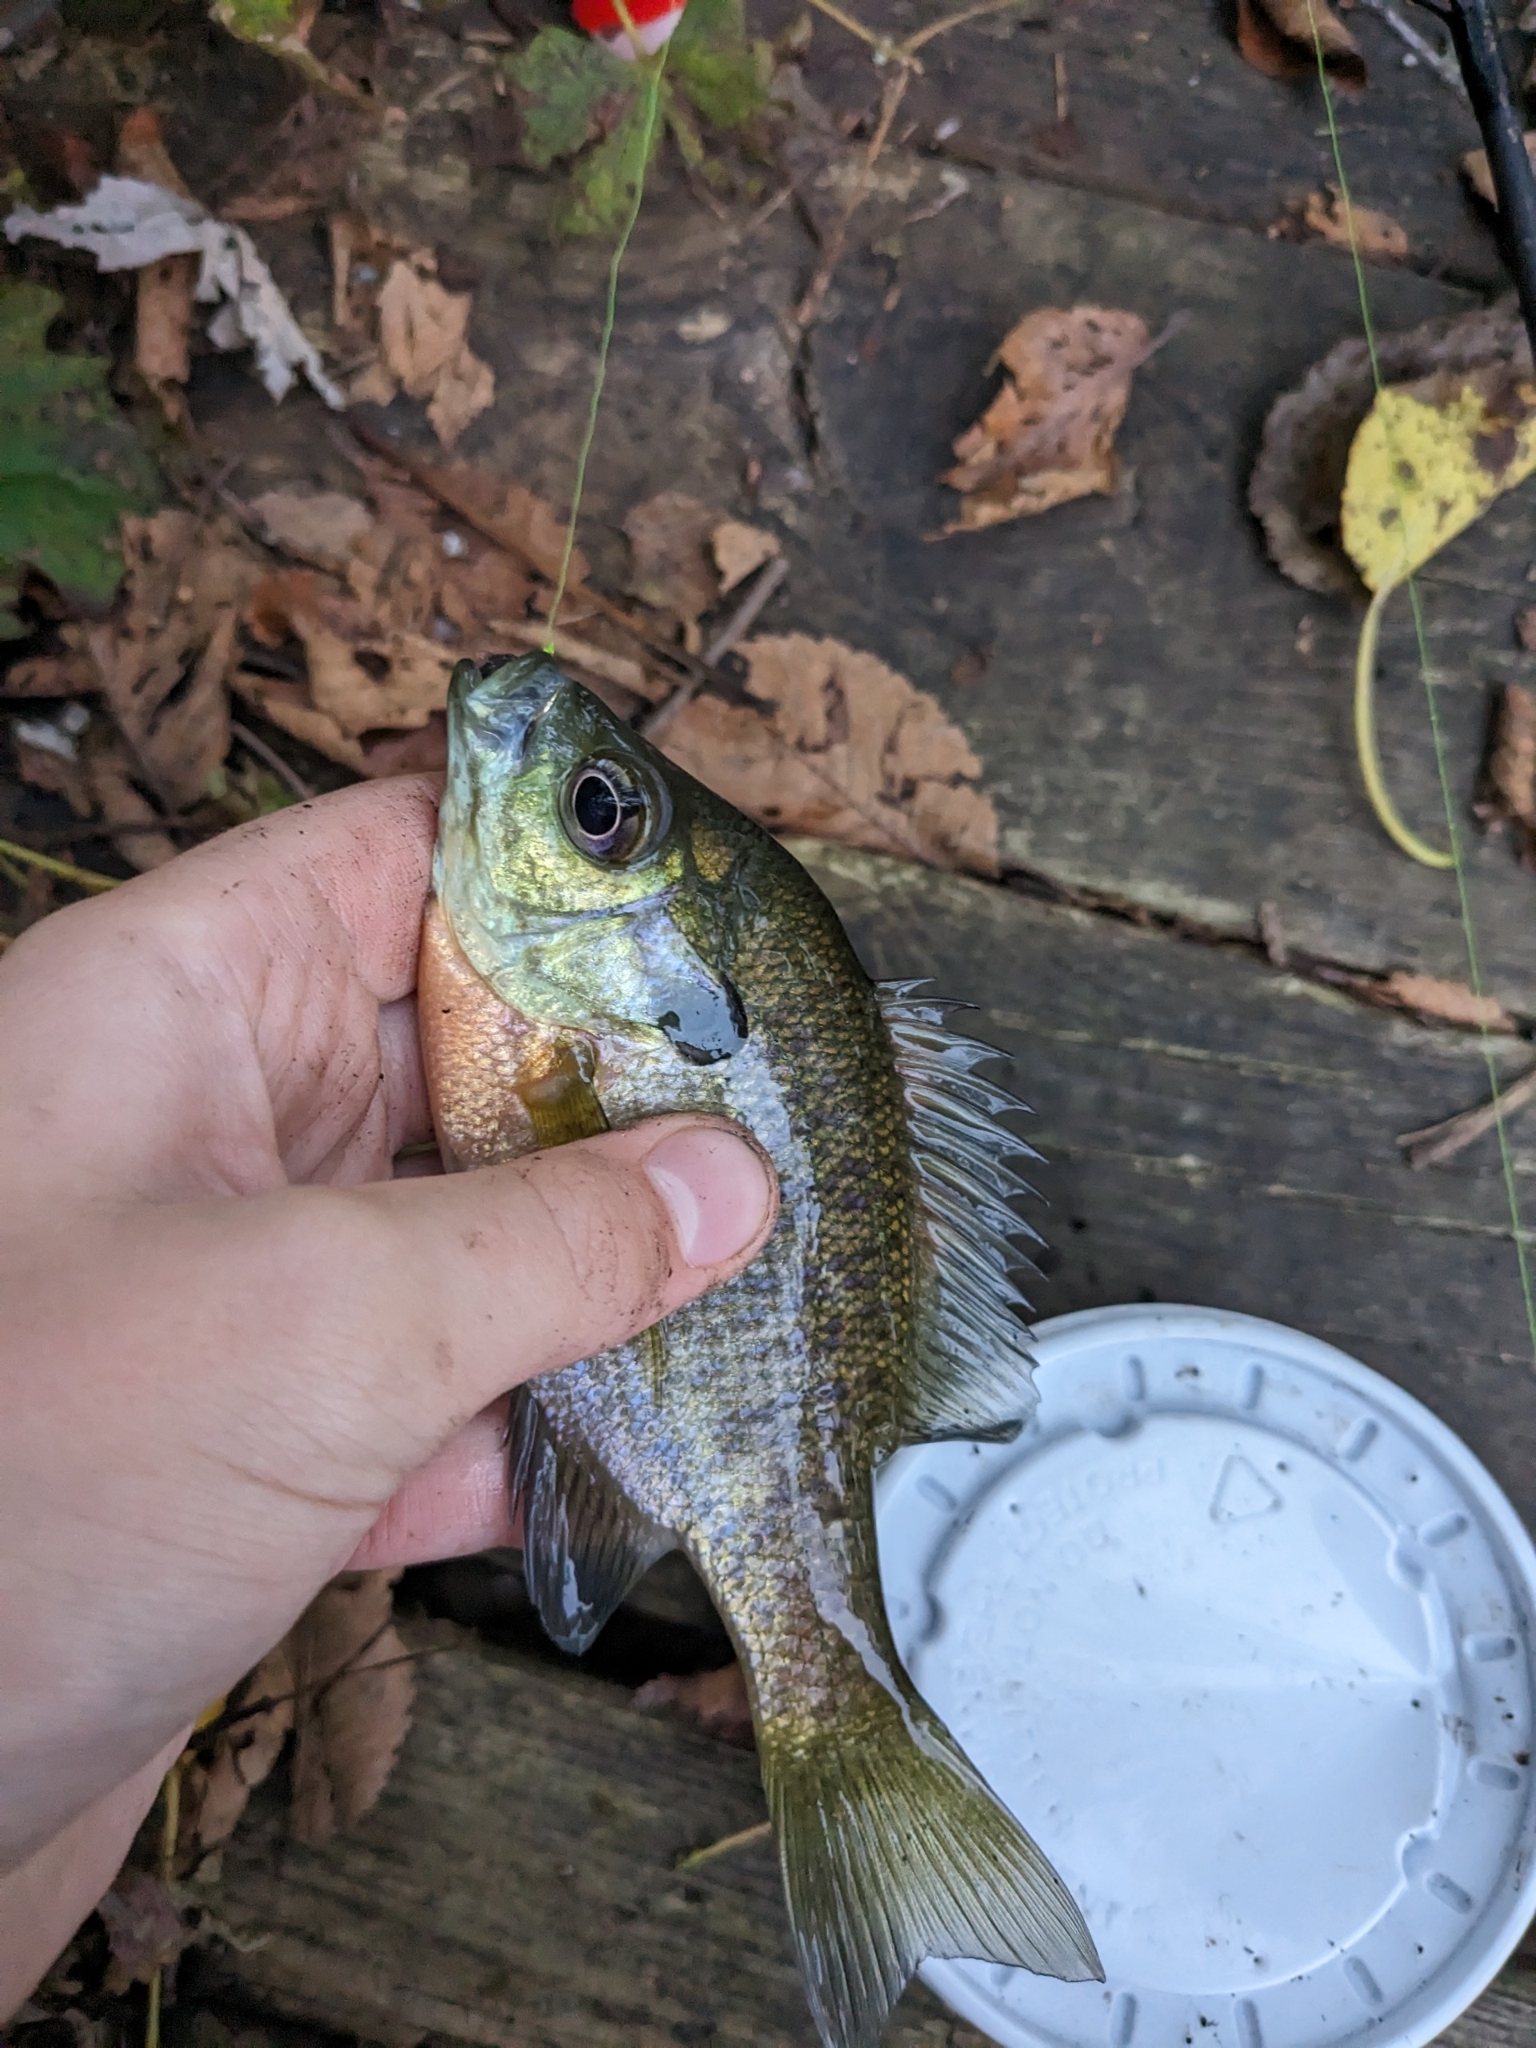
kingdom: Animalia
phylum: Chordata
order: Perciformes
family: Centrarchidae
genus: Lepomis
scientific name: Lepomis macrochirus
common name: Bluegill
